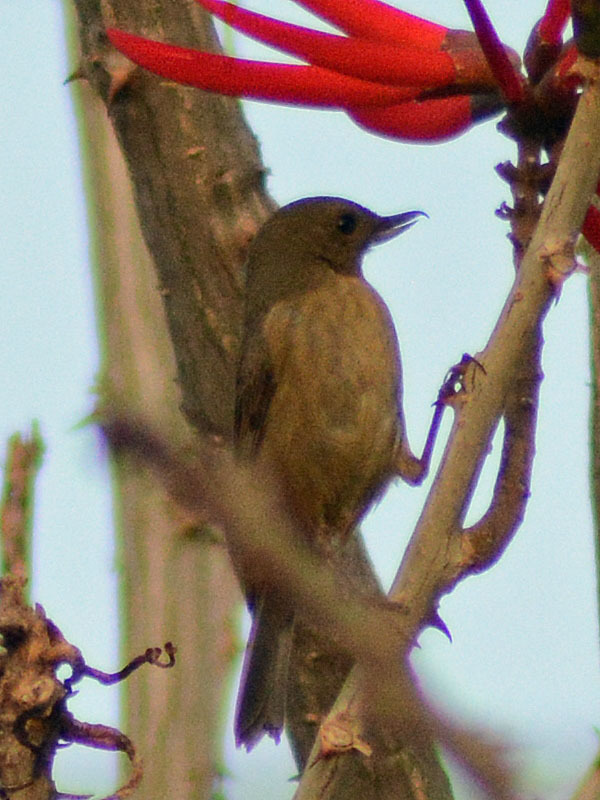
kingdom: Animalia
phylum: Chordata
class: Aves
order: Passeriformes
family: Thraupidae
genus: Diglossa
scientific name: Diglossa baritula
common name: Cinnamon-bellied flowerpiercer
